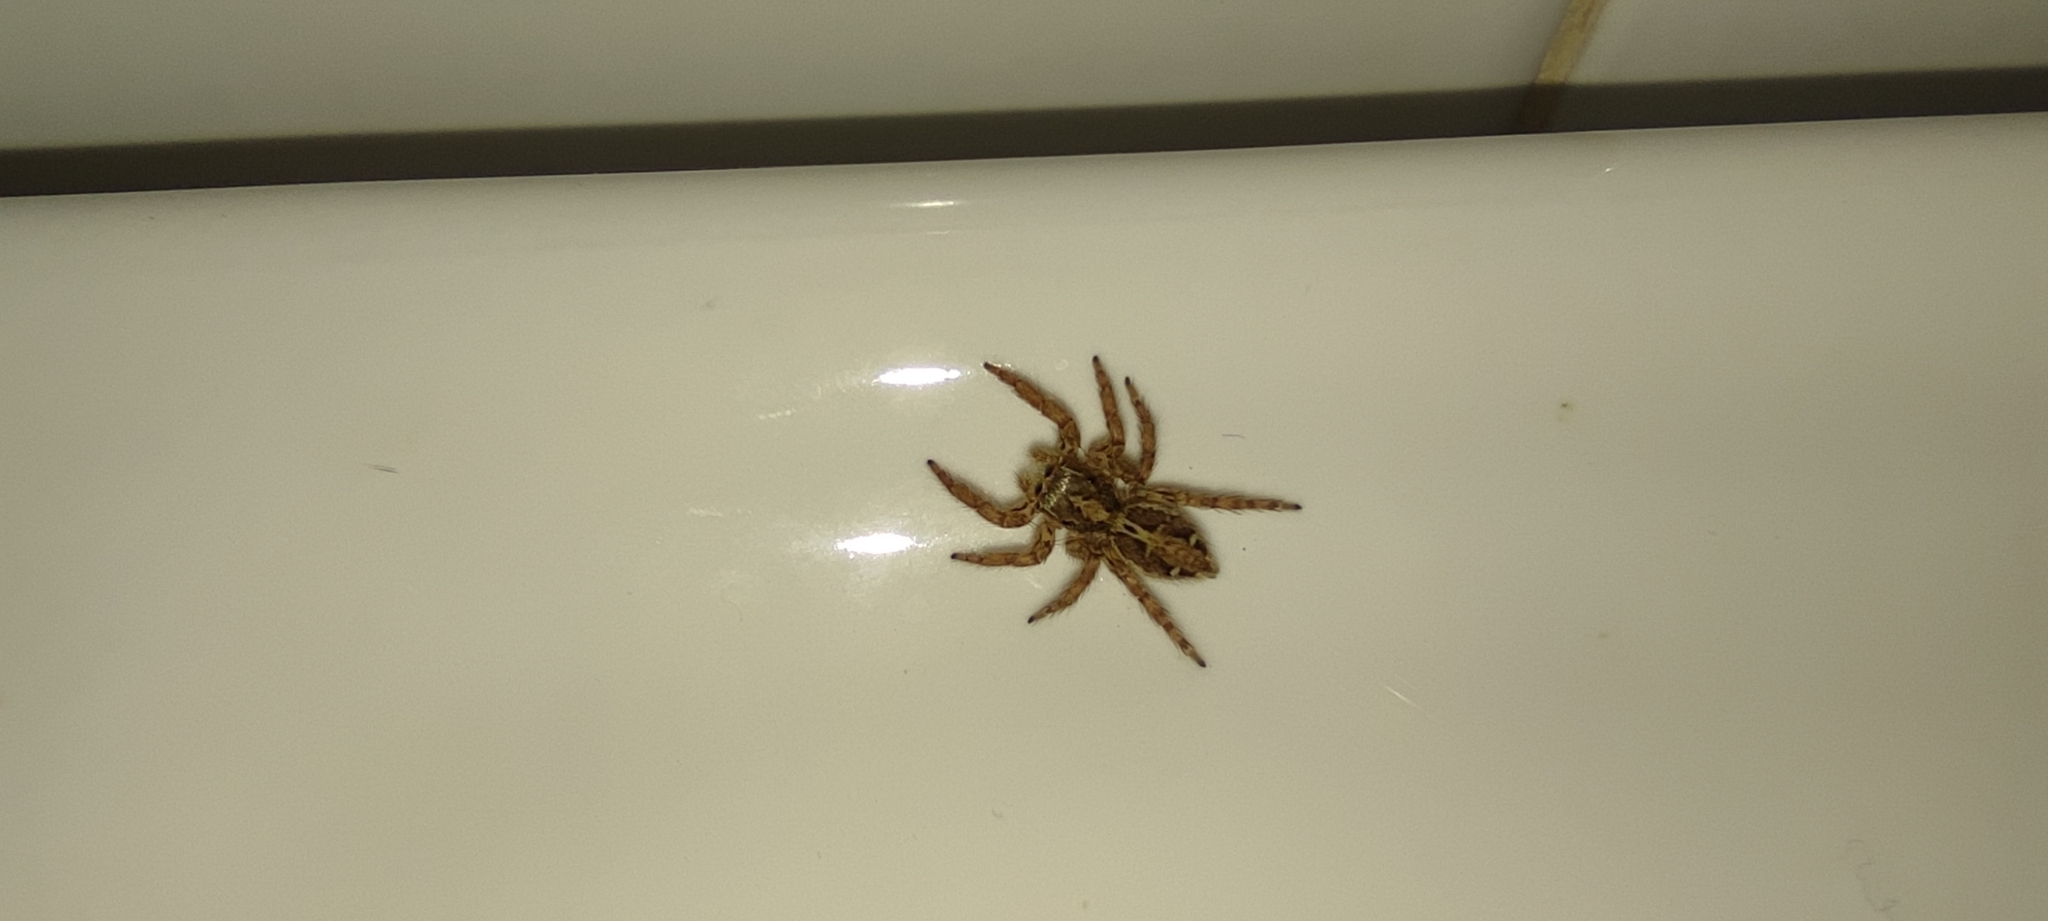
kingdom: Animalia
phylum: Arthropoda
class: Arachnida
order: Araneae
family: Salticidae
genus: Plexippus
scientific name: Plexippus paykulli
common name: Pantropical jumper
